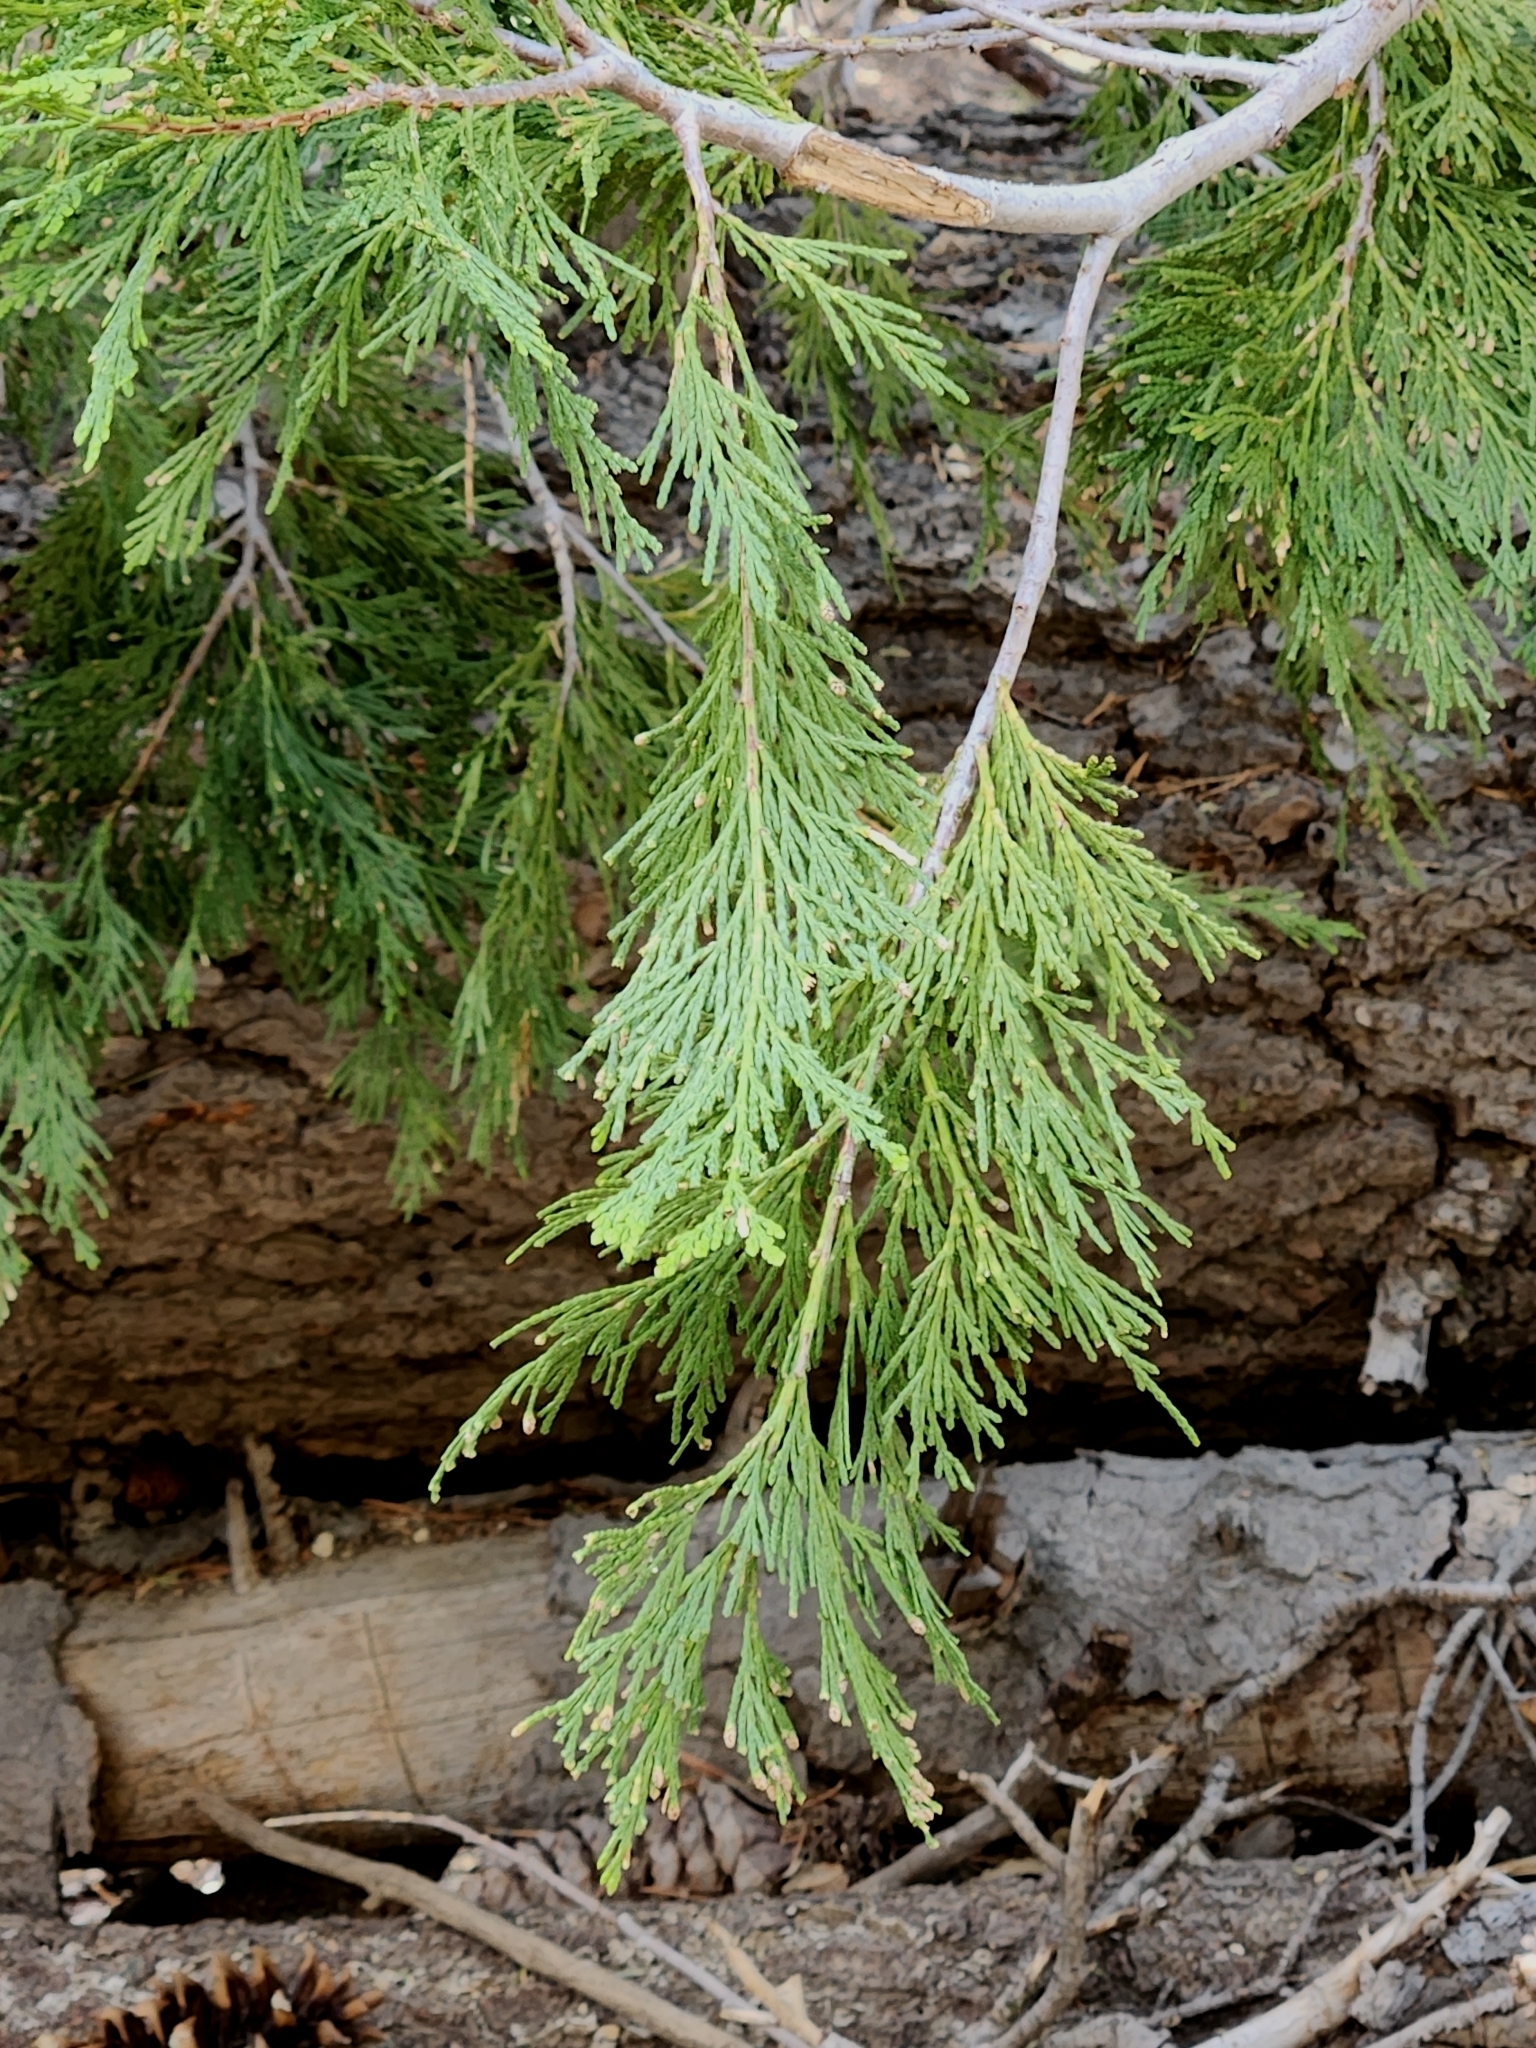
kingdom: Plantae
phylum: Tracheophyta
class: Pinopsida
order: Pinales
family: Cupressaceae
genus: Calocedrus
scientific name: Calocedrus decurrens
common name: Californian incense-cedar
